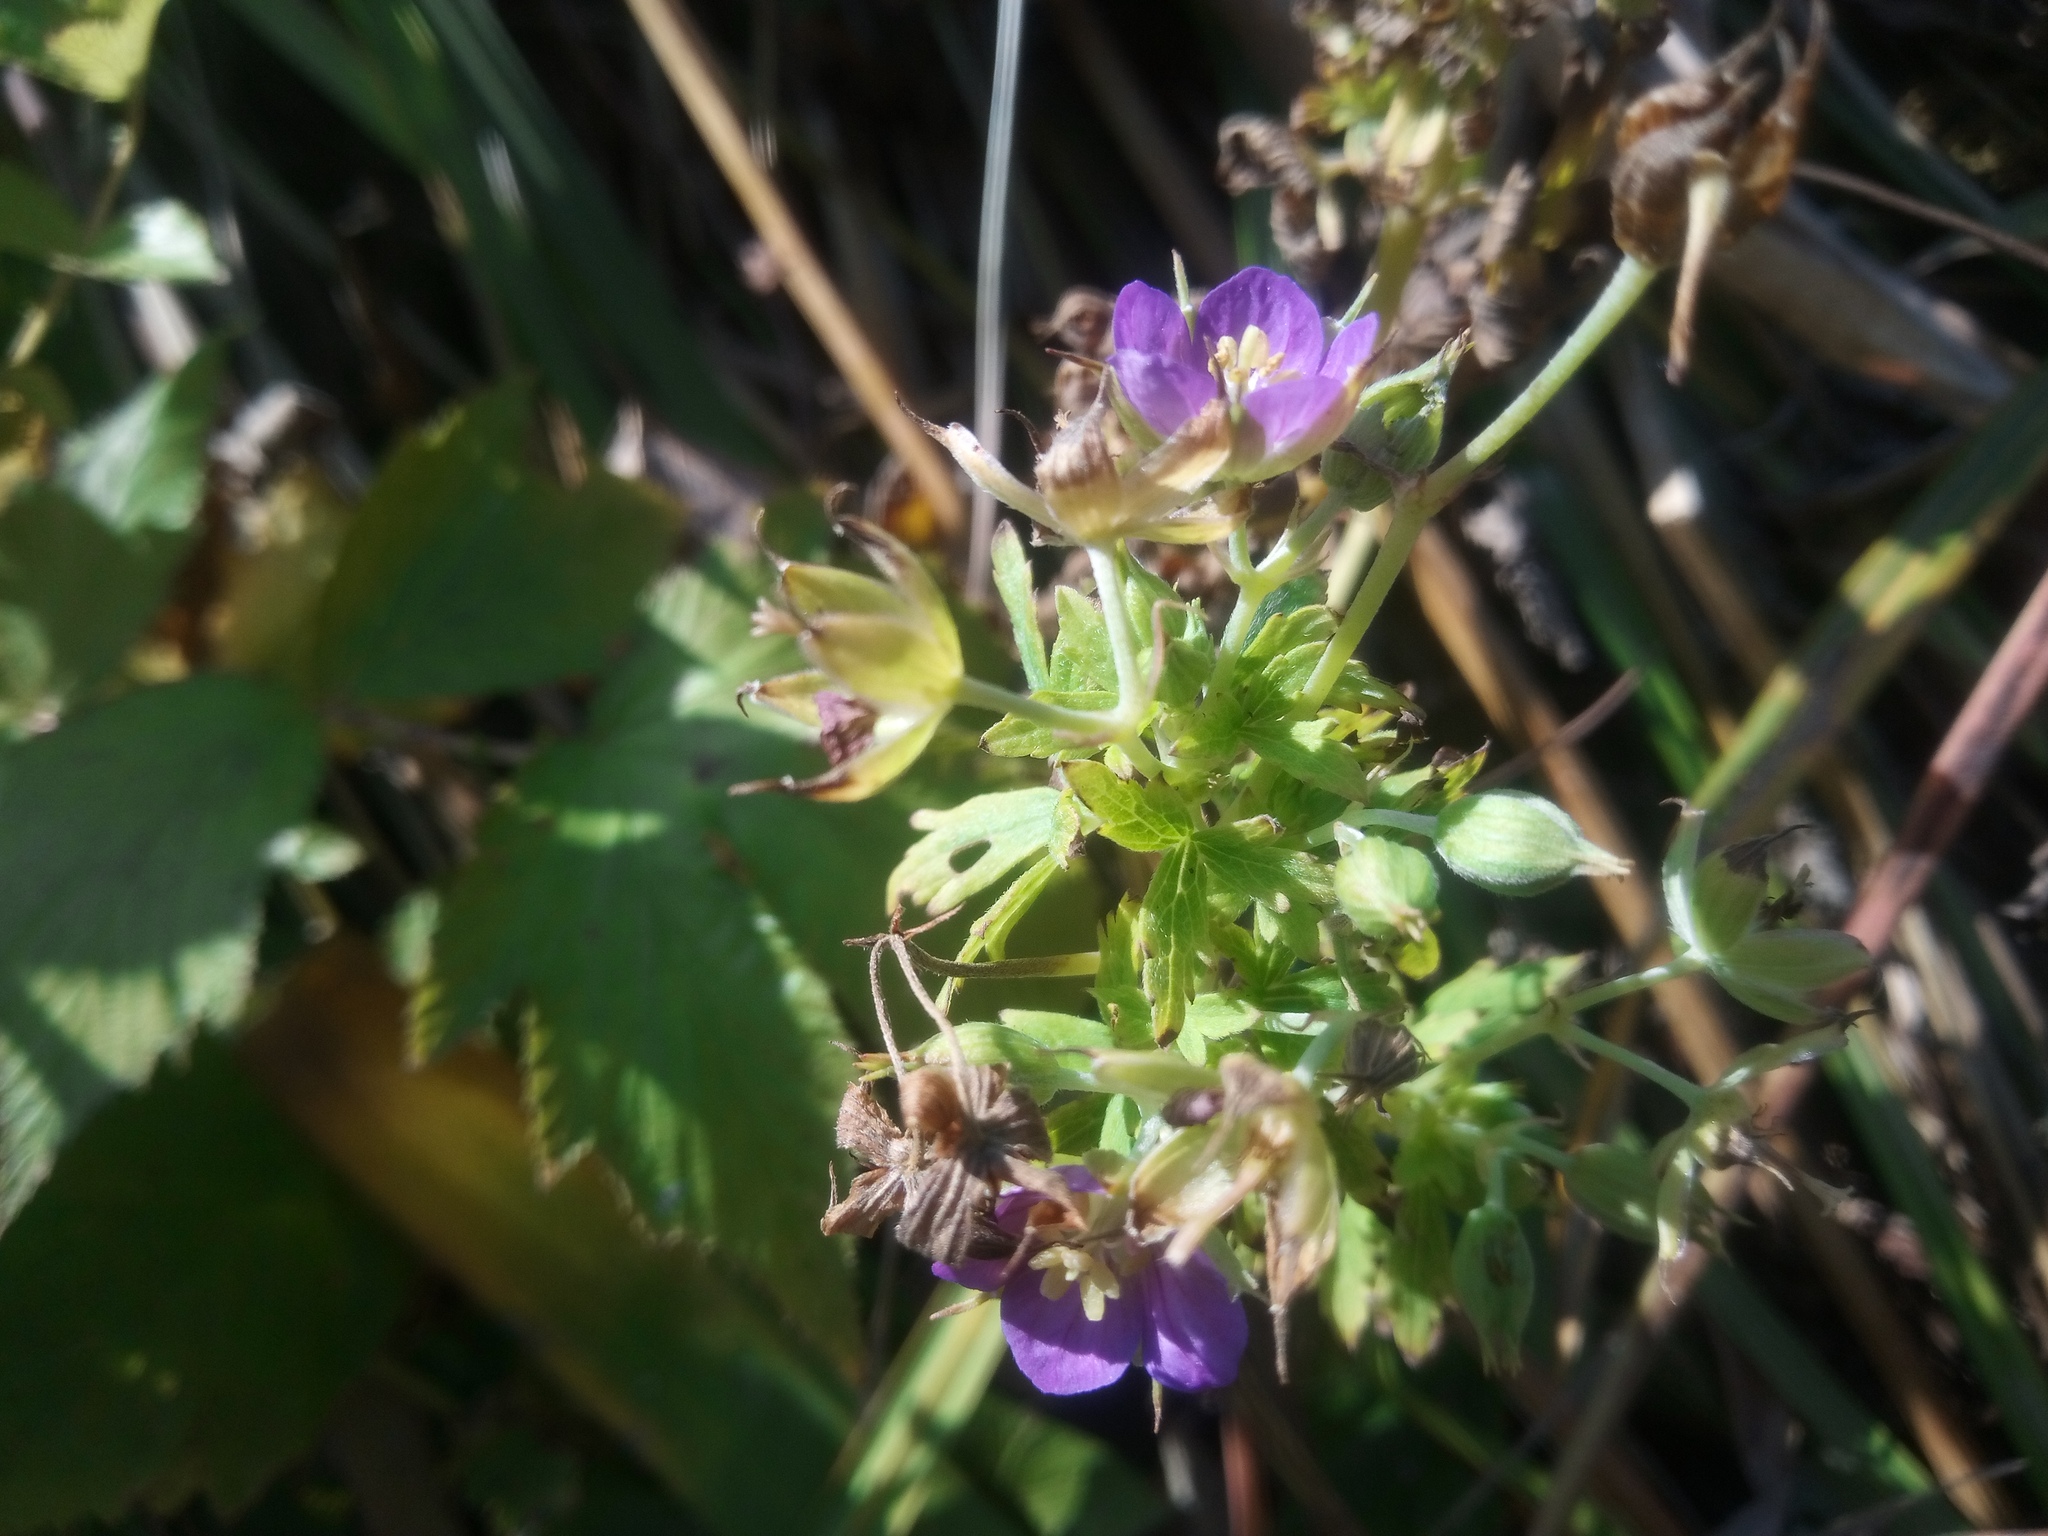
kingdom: Plantae
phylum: Tracheophyta
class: Magnoliopsida
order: Geraniales
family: Geraniaceae
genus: Geranium
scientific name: Geranium collinum
